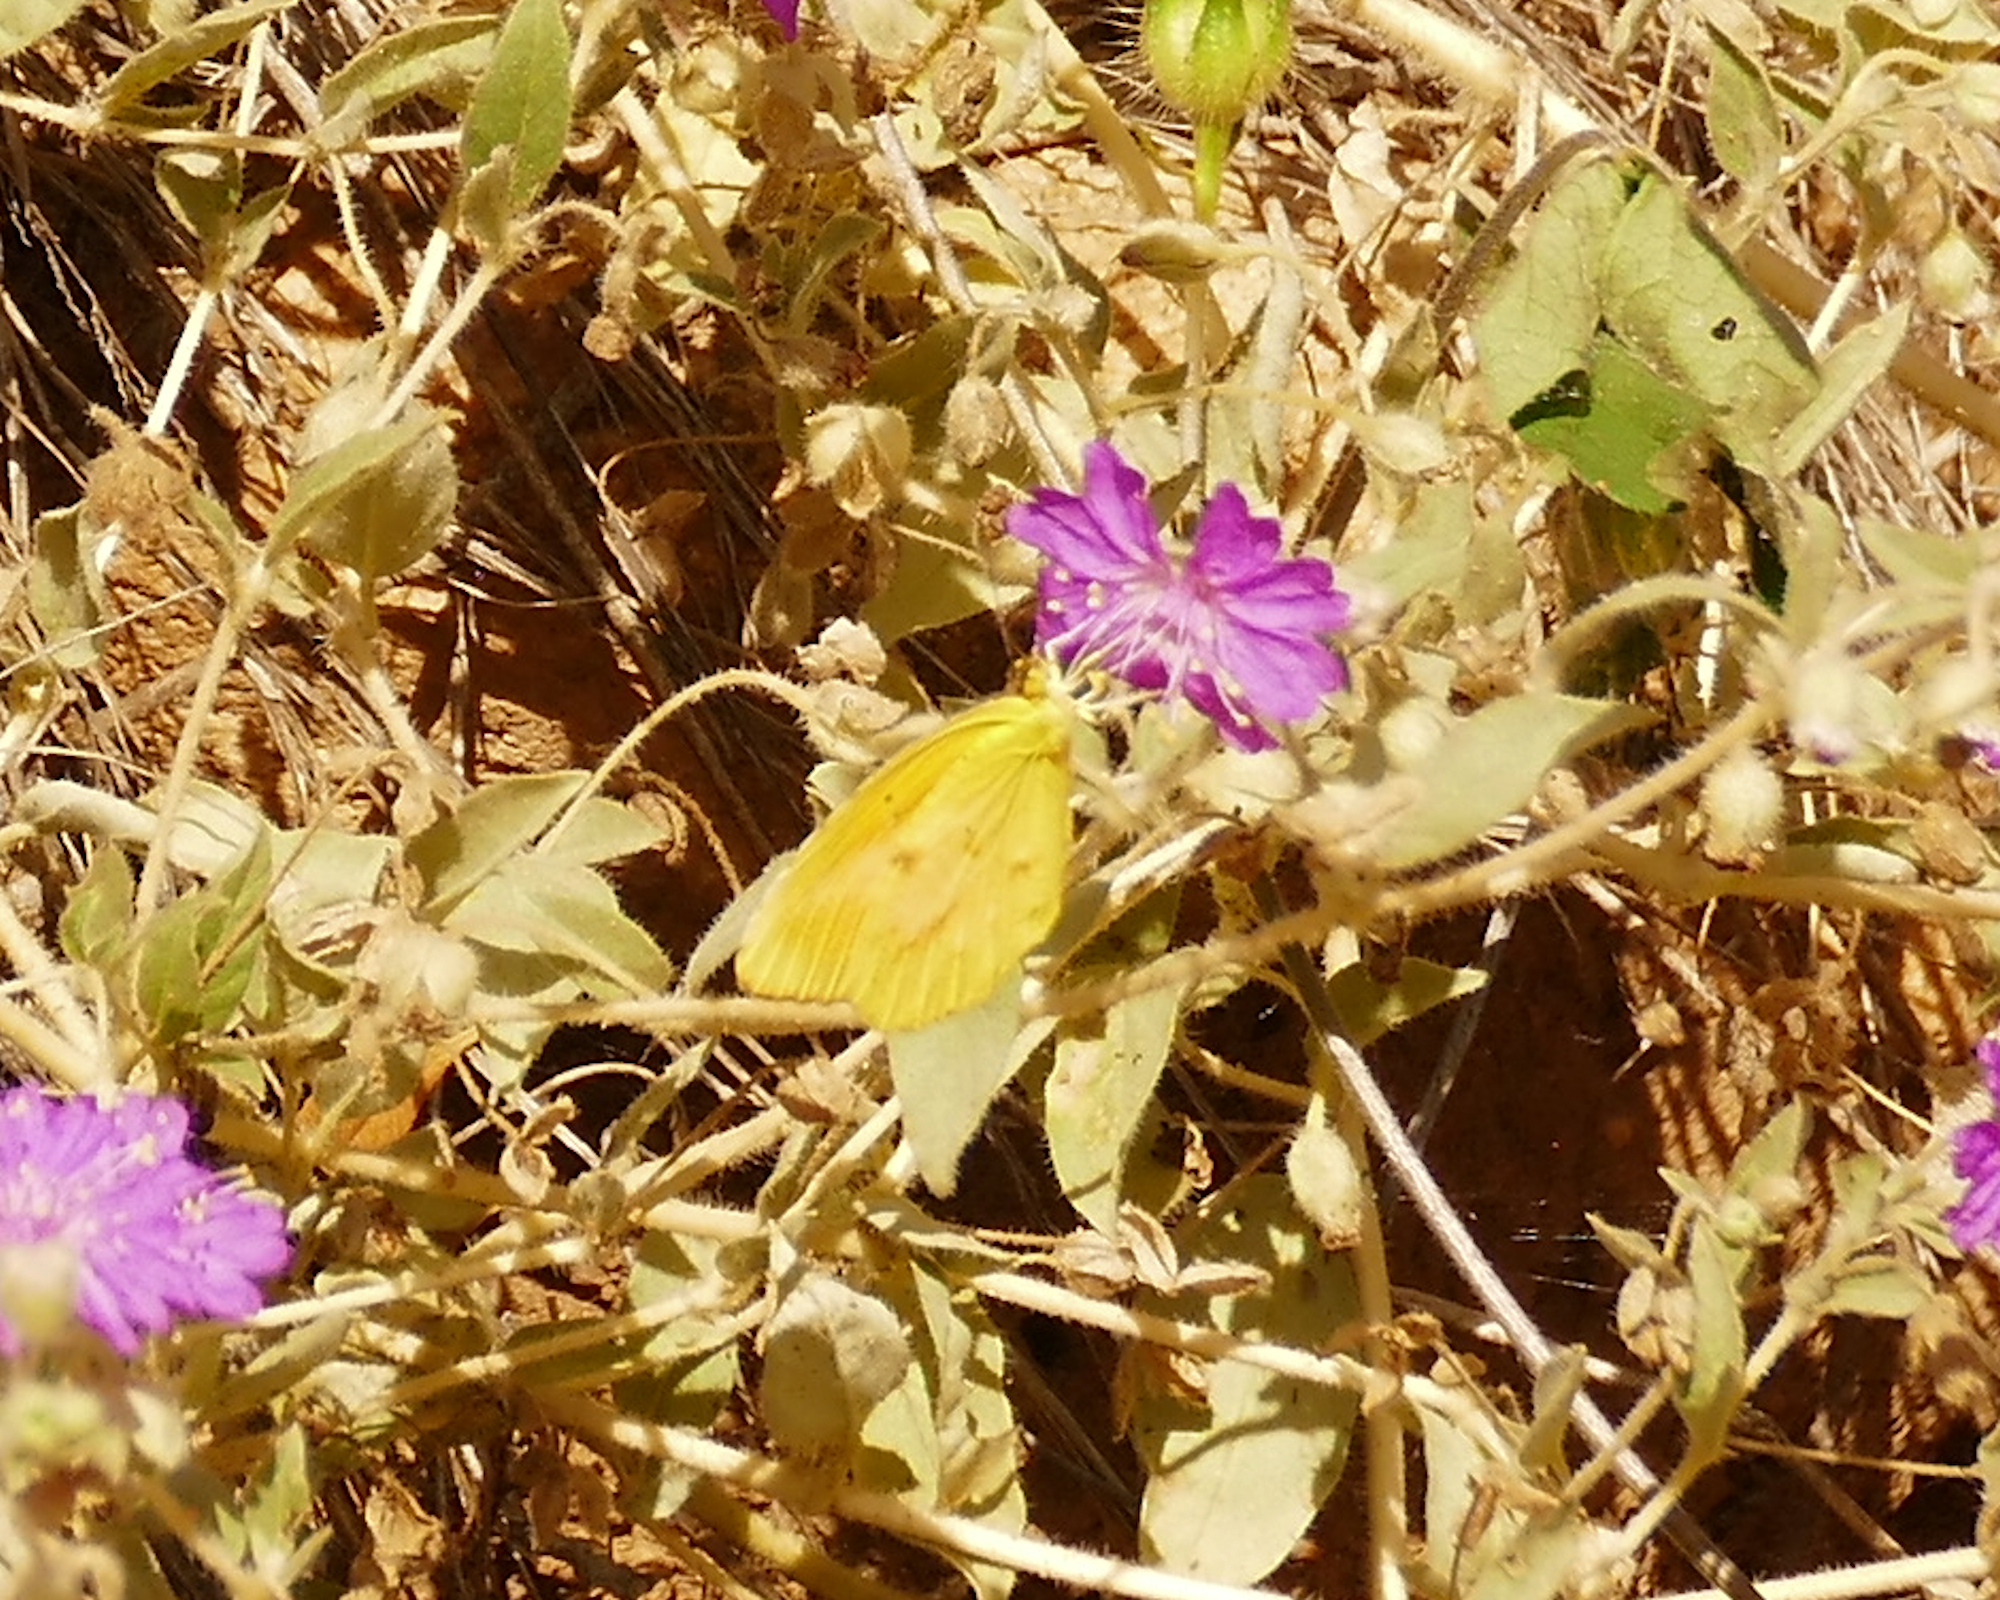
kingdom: Animalia
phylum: Arthropoda
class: Insecta
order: Lepidoptera
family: Pieridae
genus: Abaeis
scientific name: Abaeis nicippe
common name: Sleepy orange
